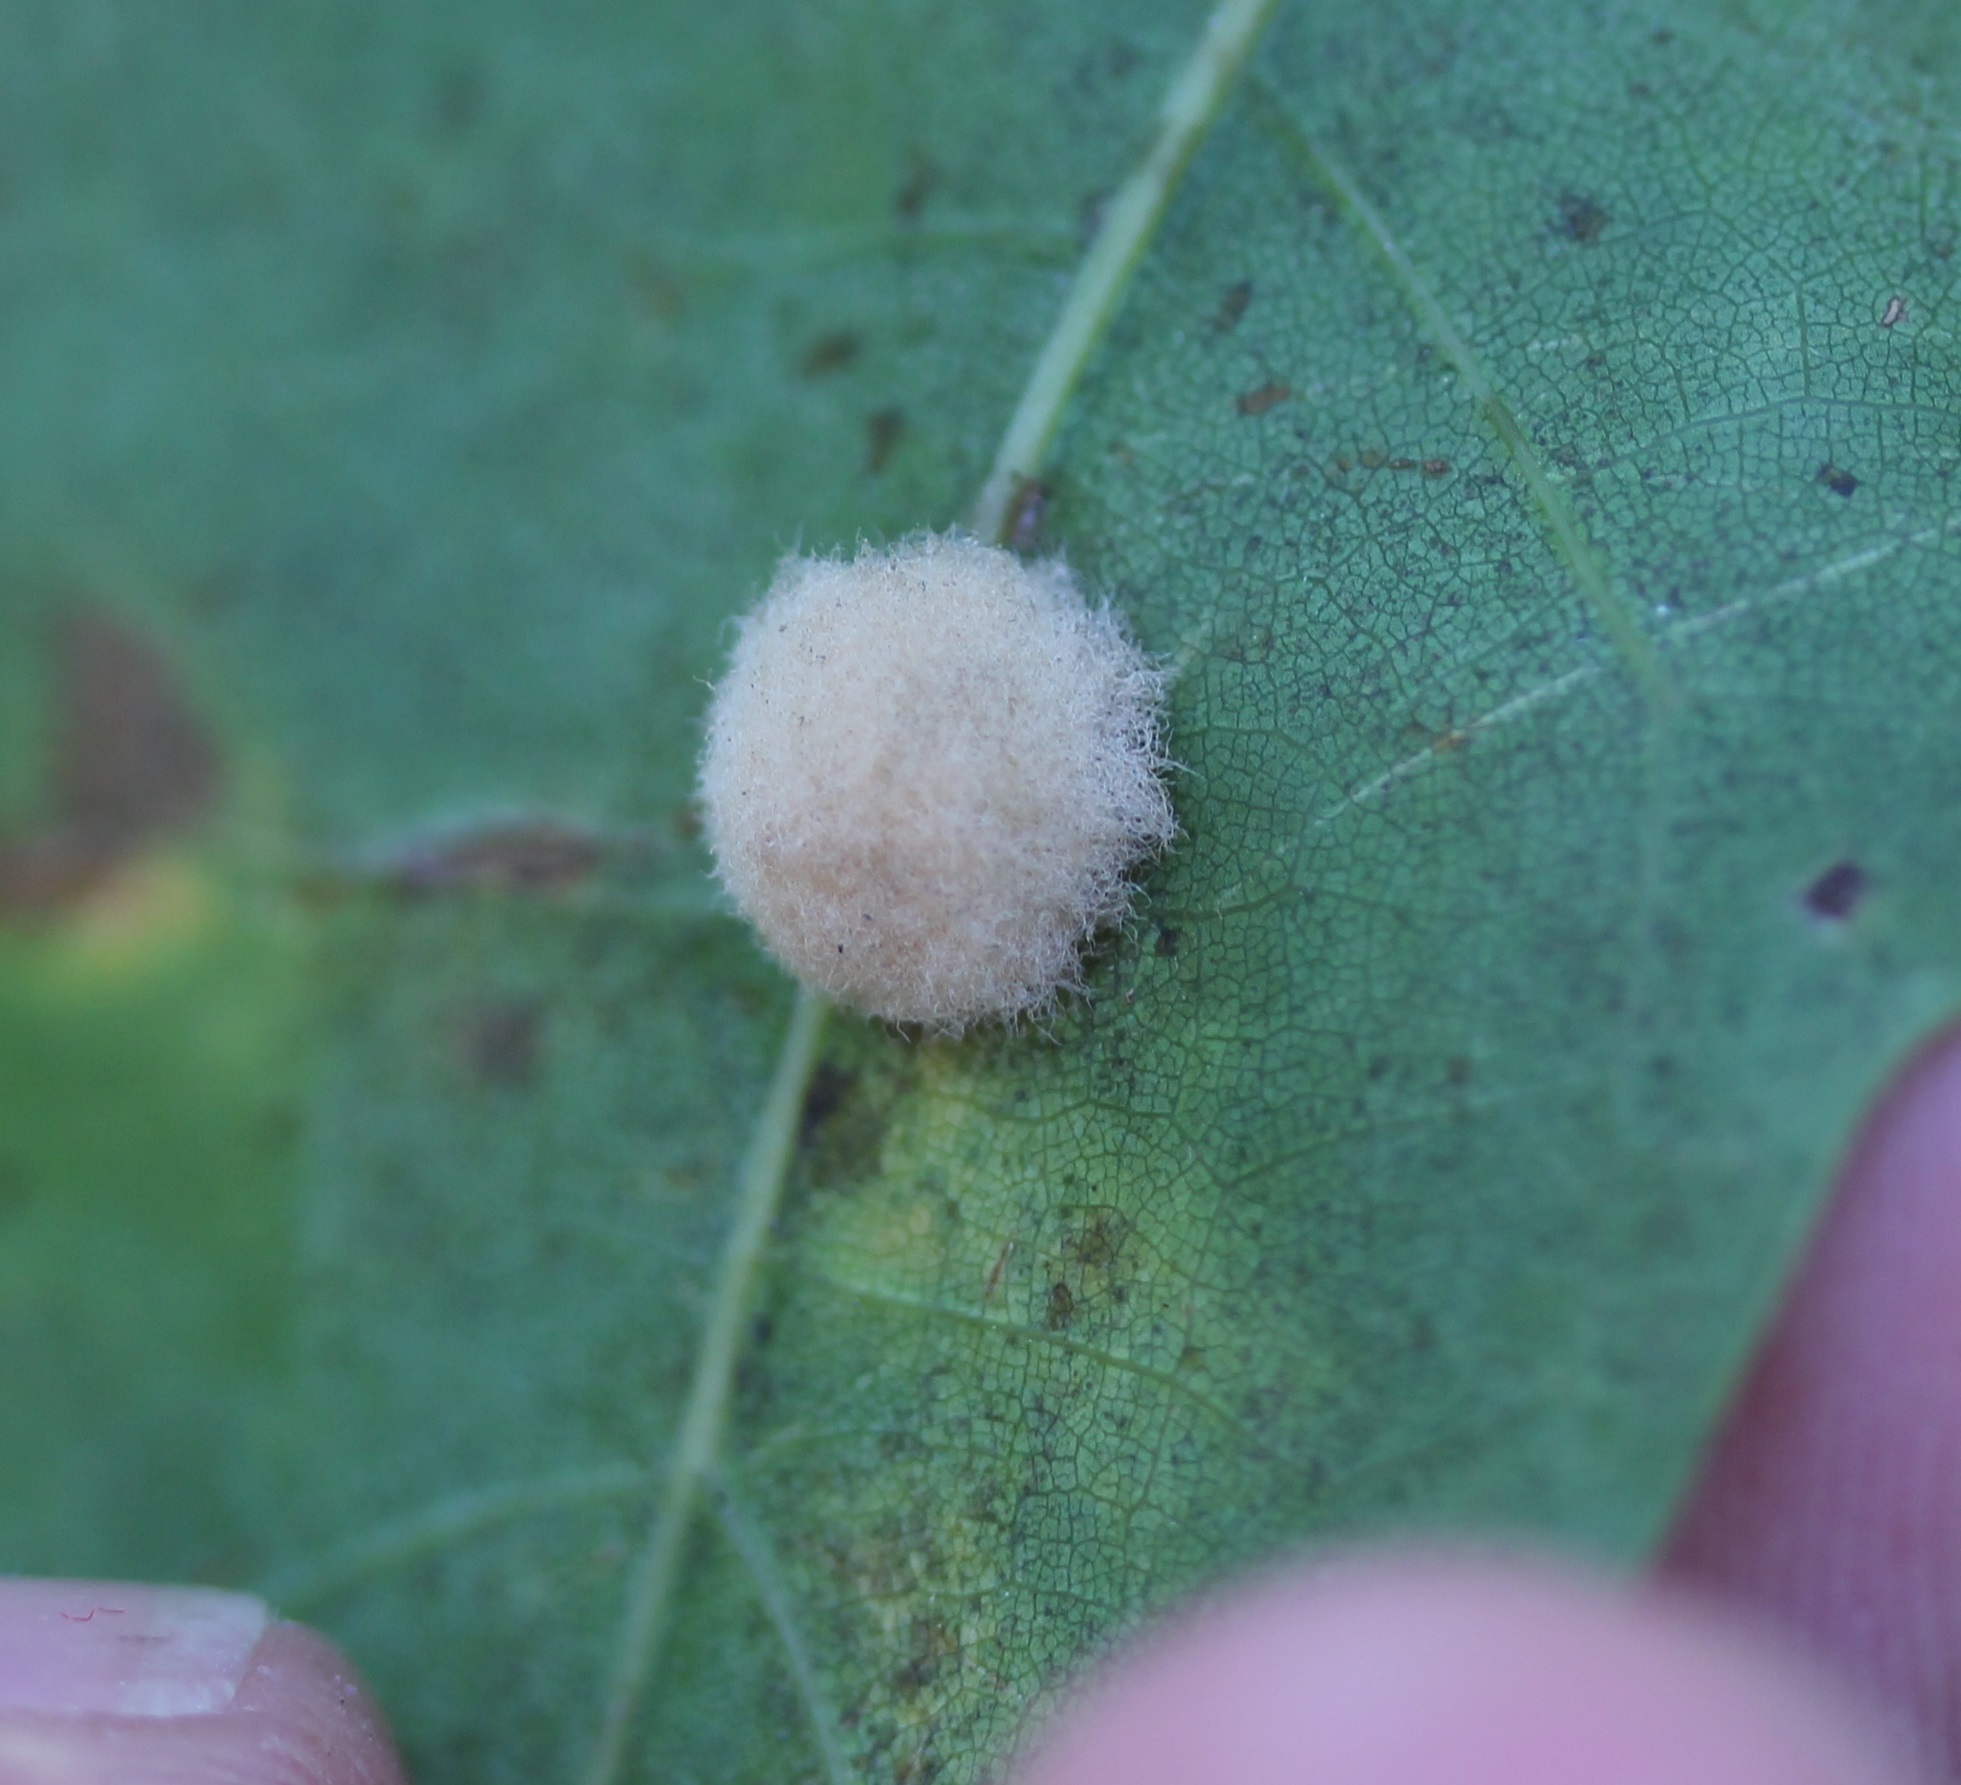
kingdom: Animalia
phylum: Arthropoda
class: Insecta
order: Hymenoptera
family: Cynipidae
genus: Callirhytis
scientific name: Callirhytis
